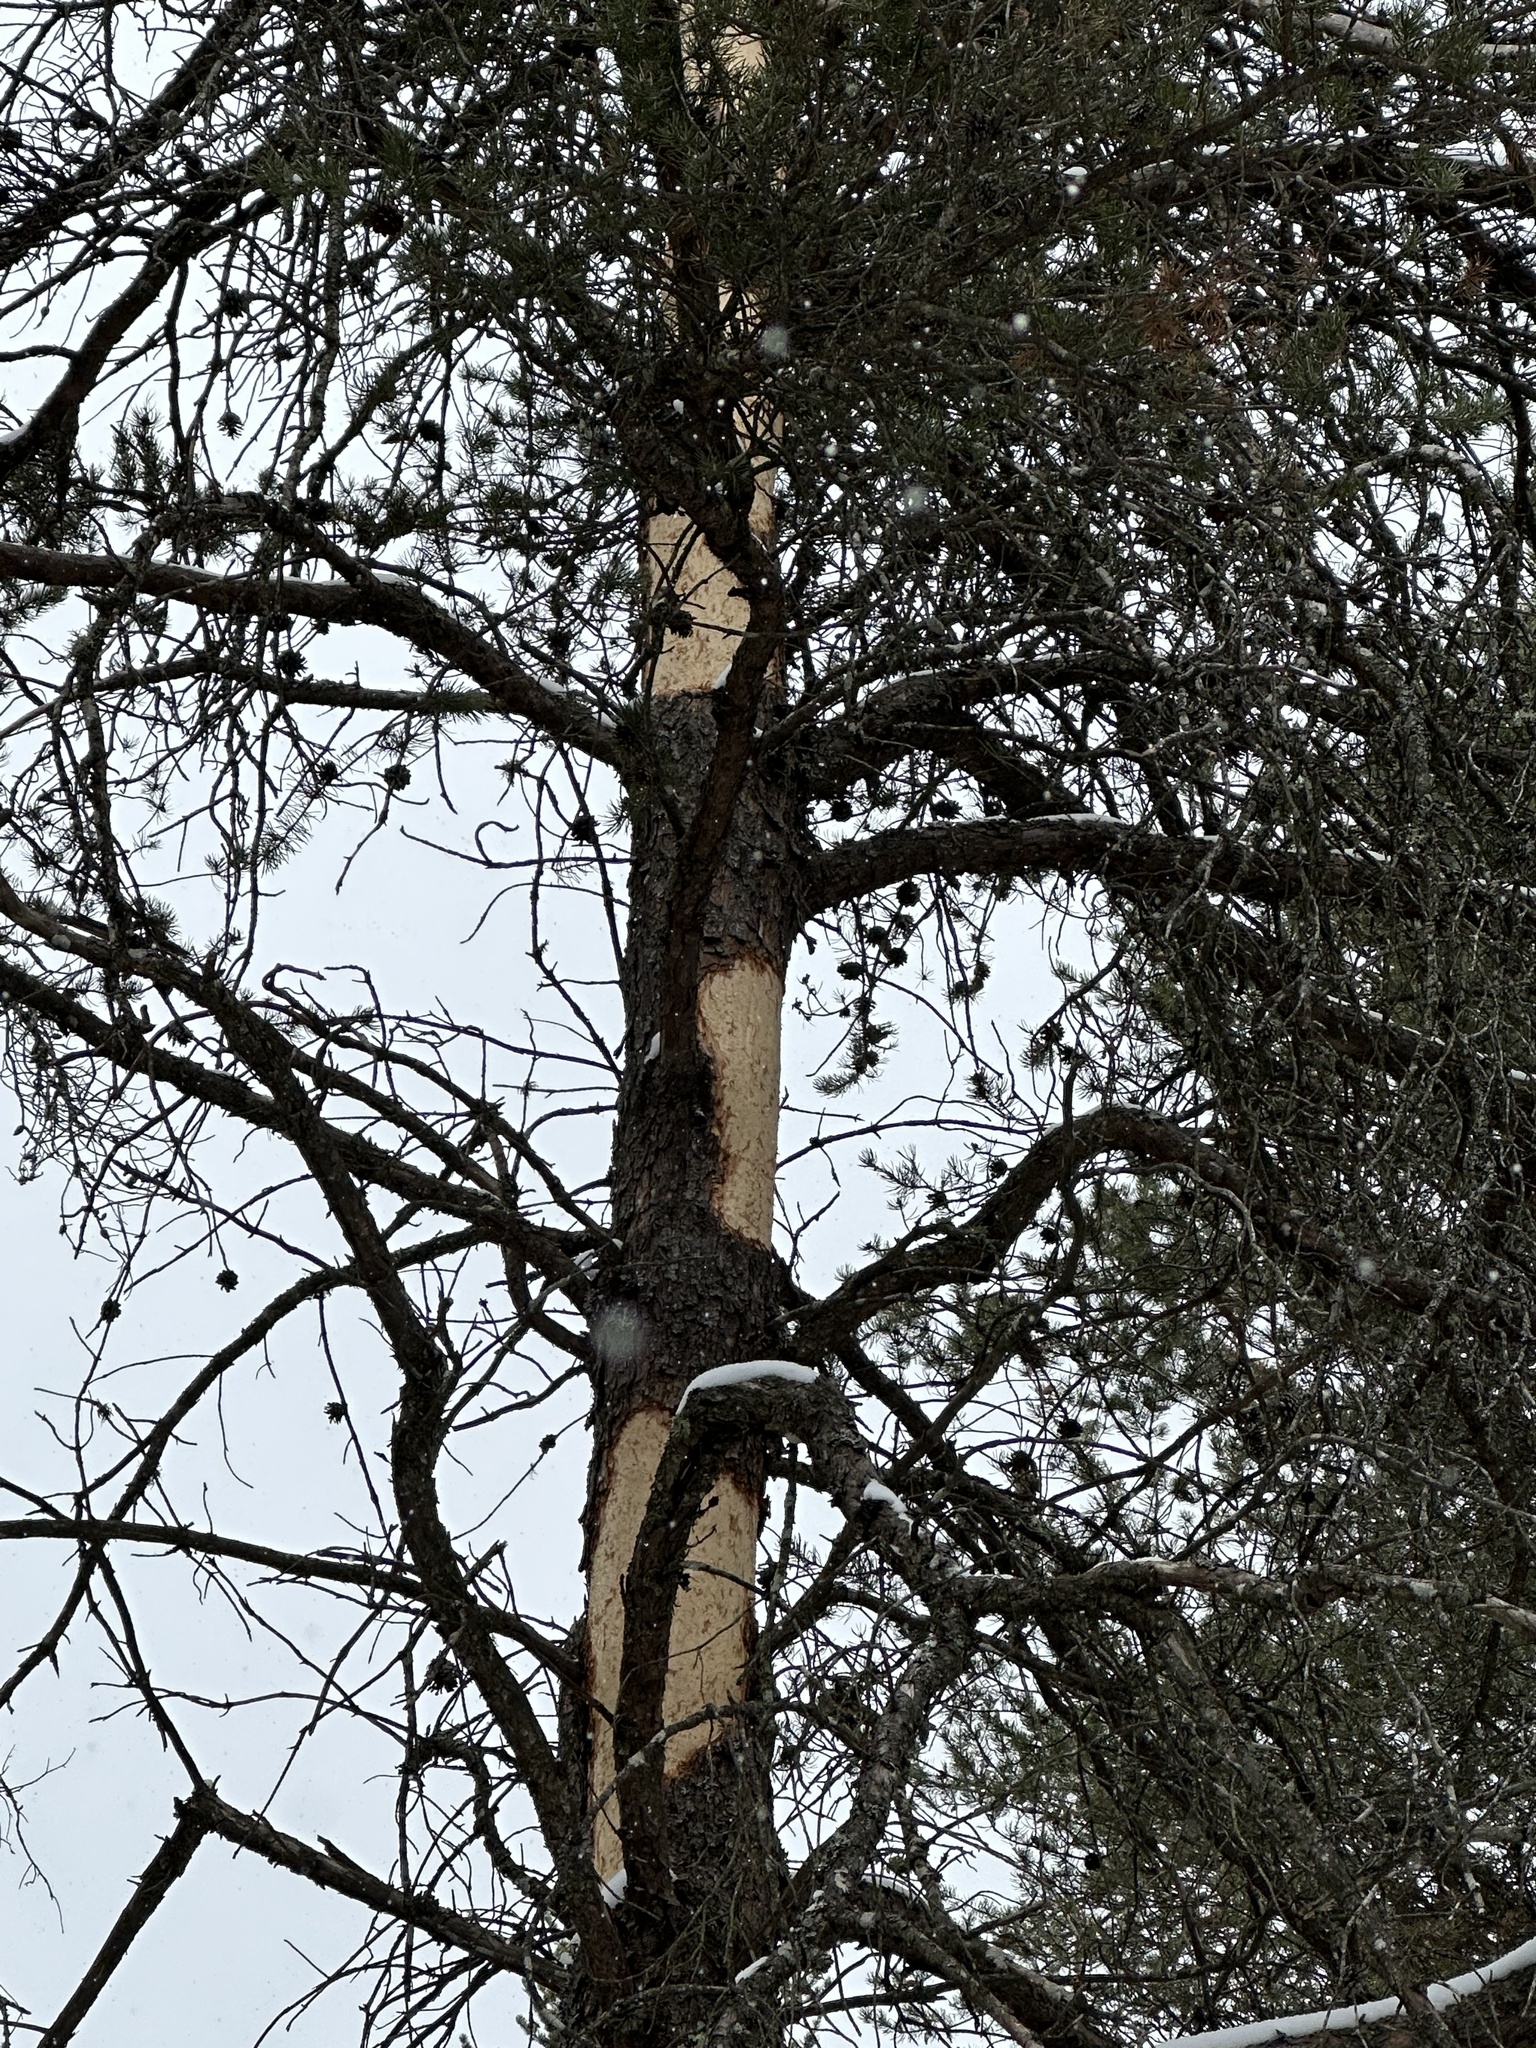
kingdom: Animalia
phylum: Chordata
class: Mammalia
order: Rodentia
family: Erethizontidae
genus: Erethizon
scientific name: Erethizon dorsatus
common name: North american porcupine
